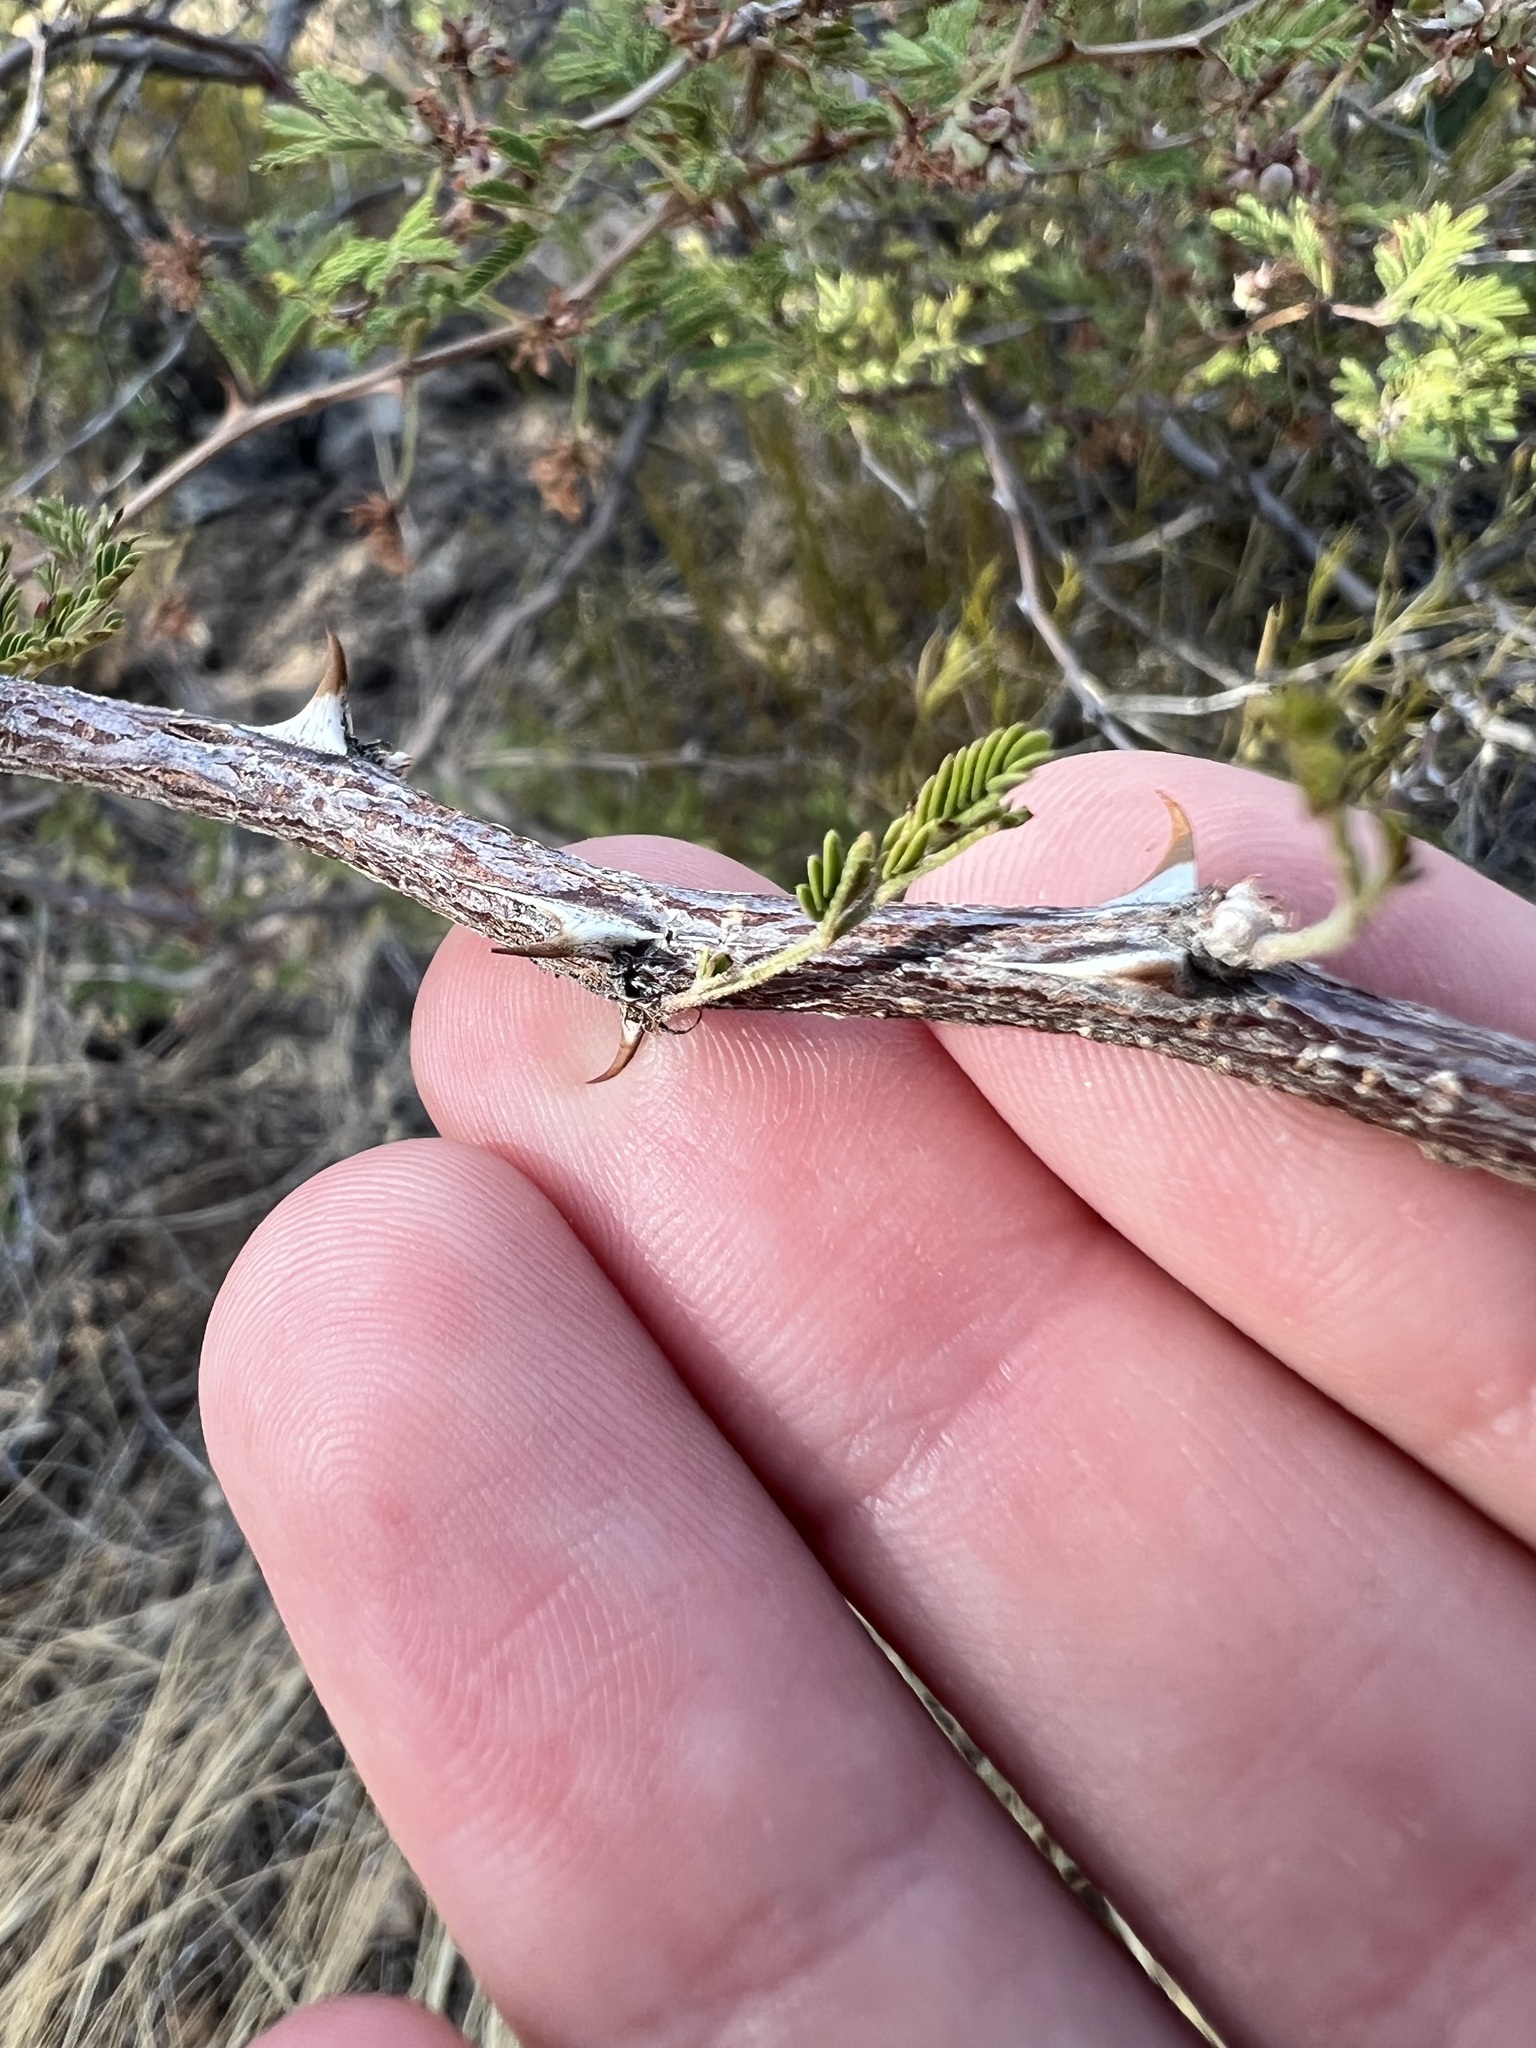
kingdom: Plantae
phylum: Tracheophyta
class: Magnoliopsida
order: Fabales
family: Fabaceae
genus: Mimosa
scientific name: Mimosa aculeaticarpa
